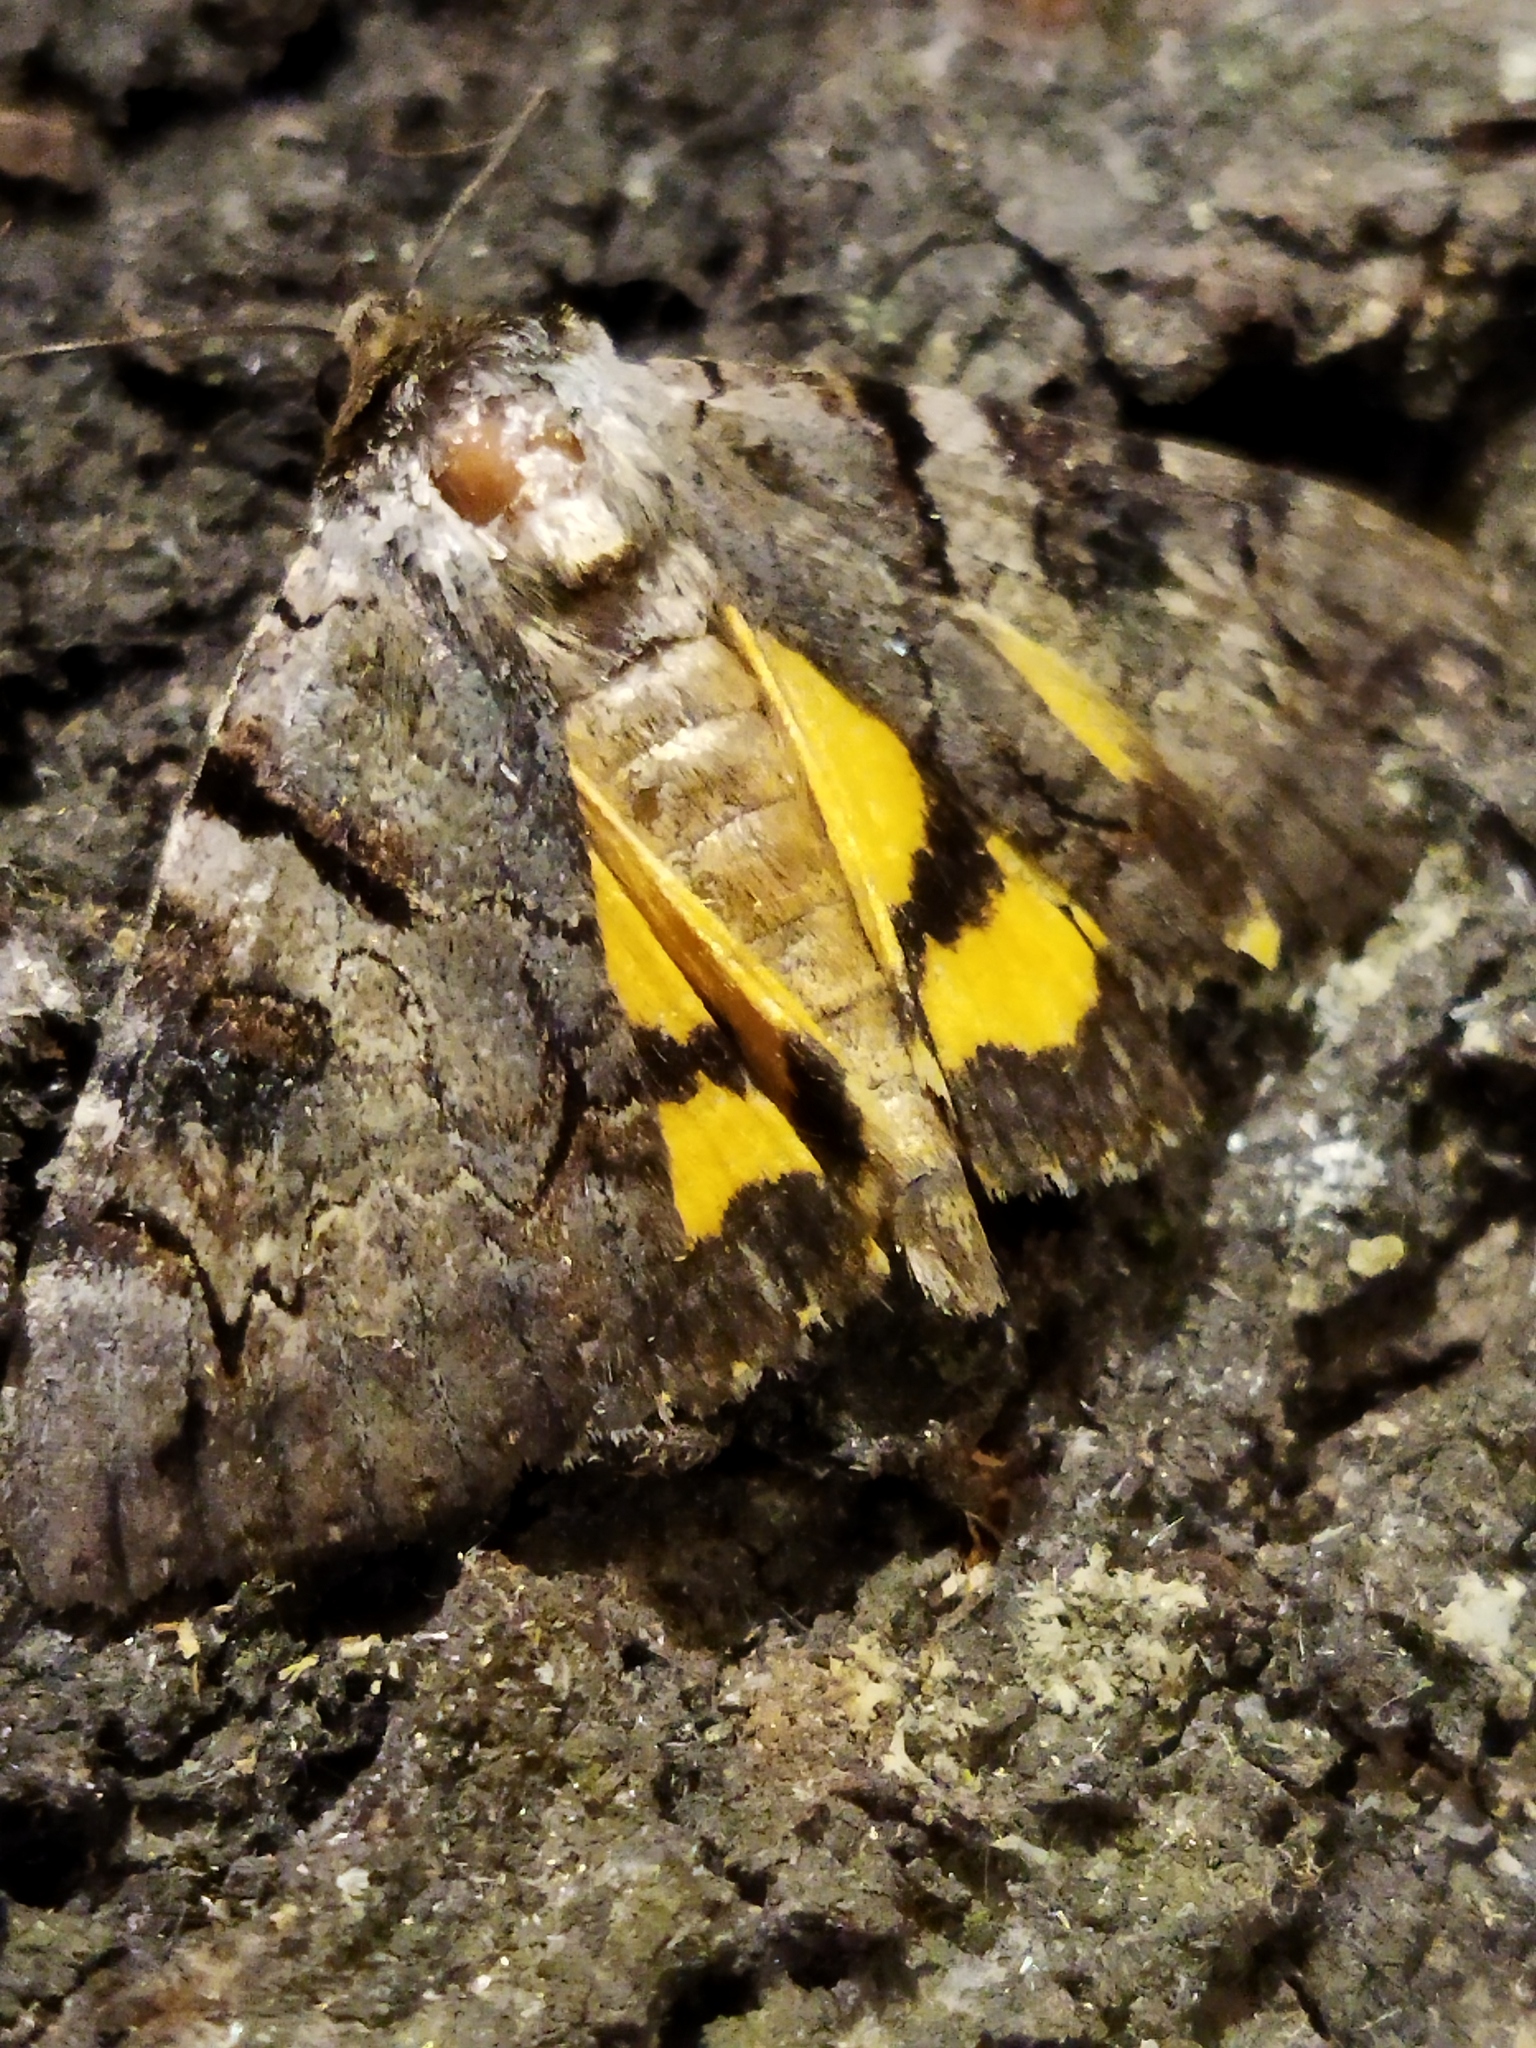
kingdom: Animalia
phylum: Arthropoda
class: Insecta
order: Lepidoptera
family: Erebidae
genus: Catocala
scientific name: Catocala hymenaea
